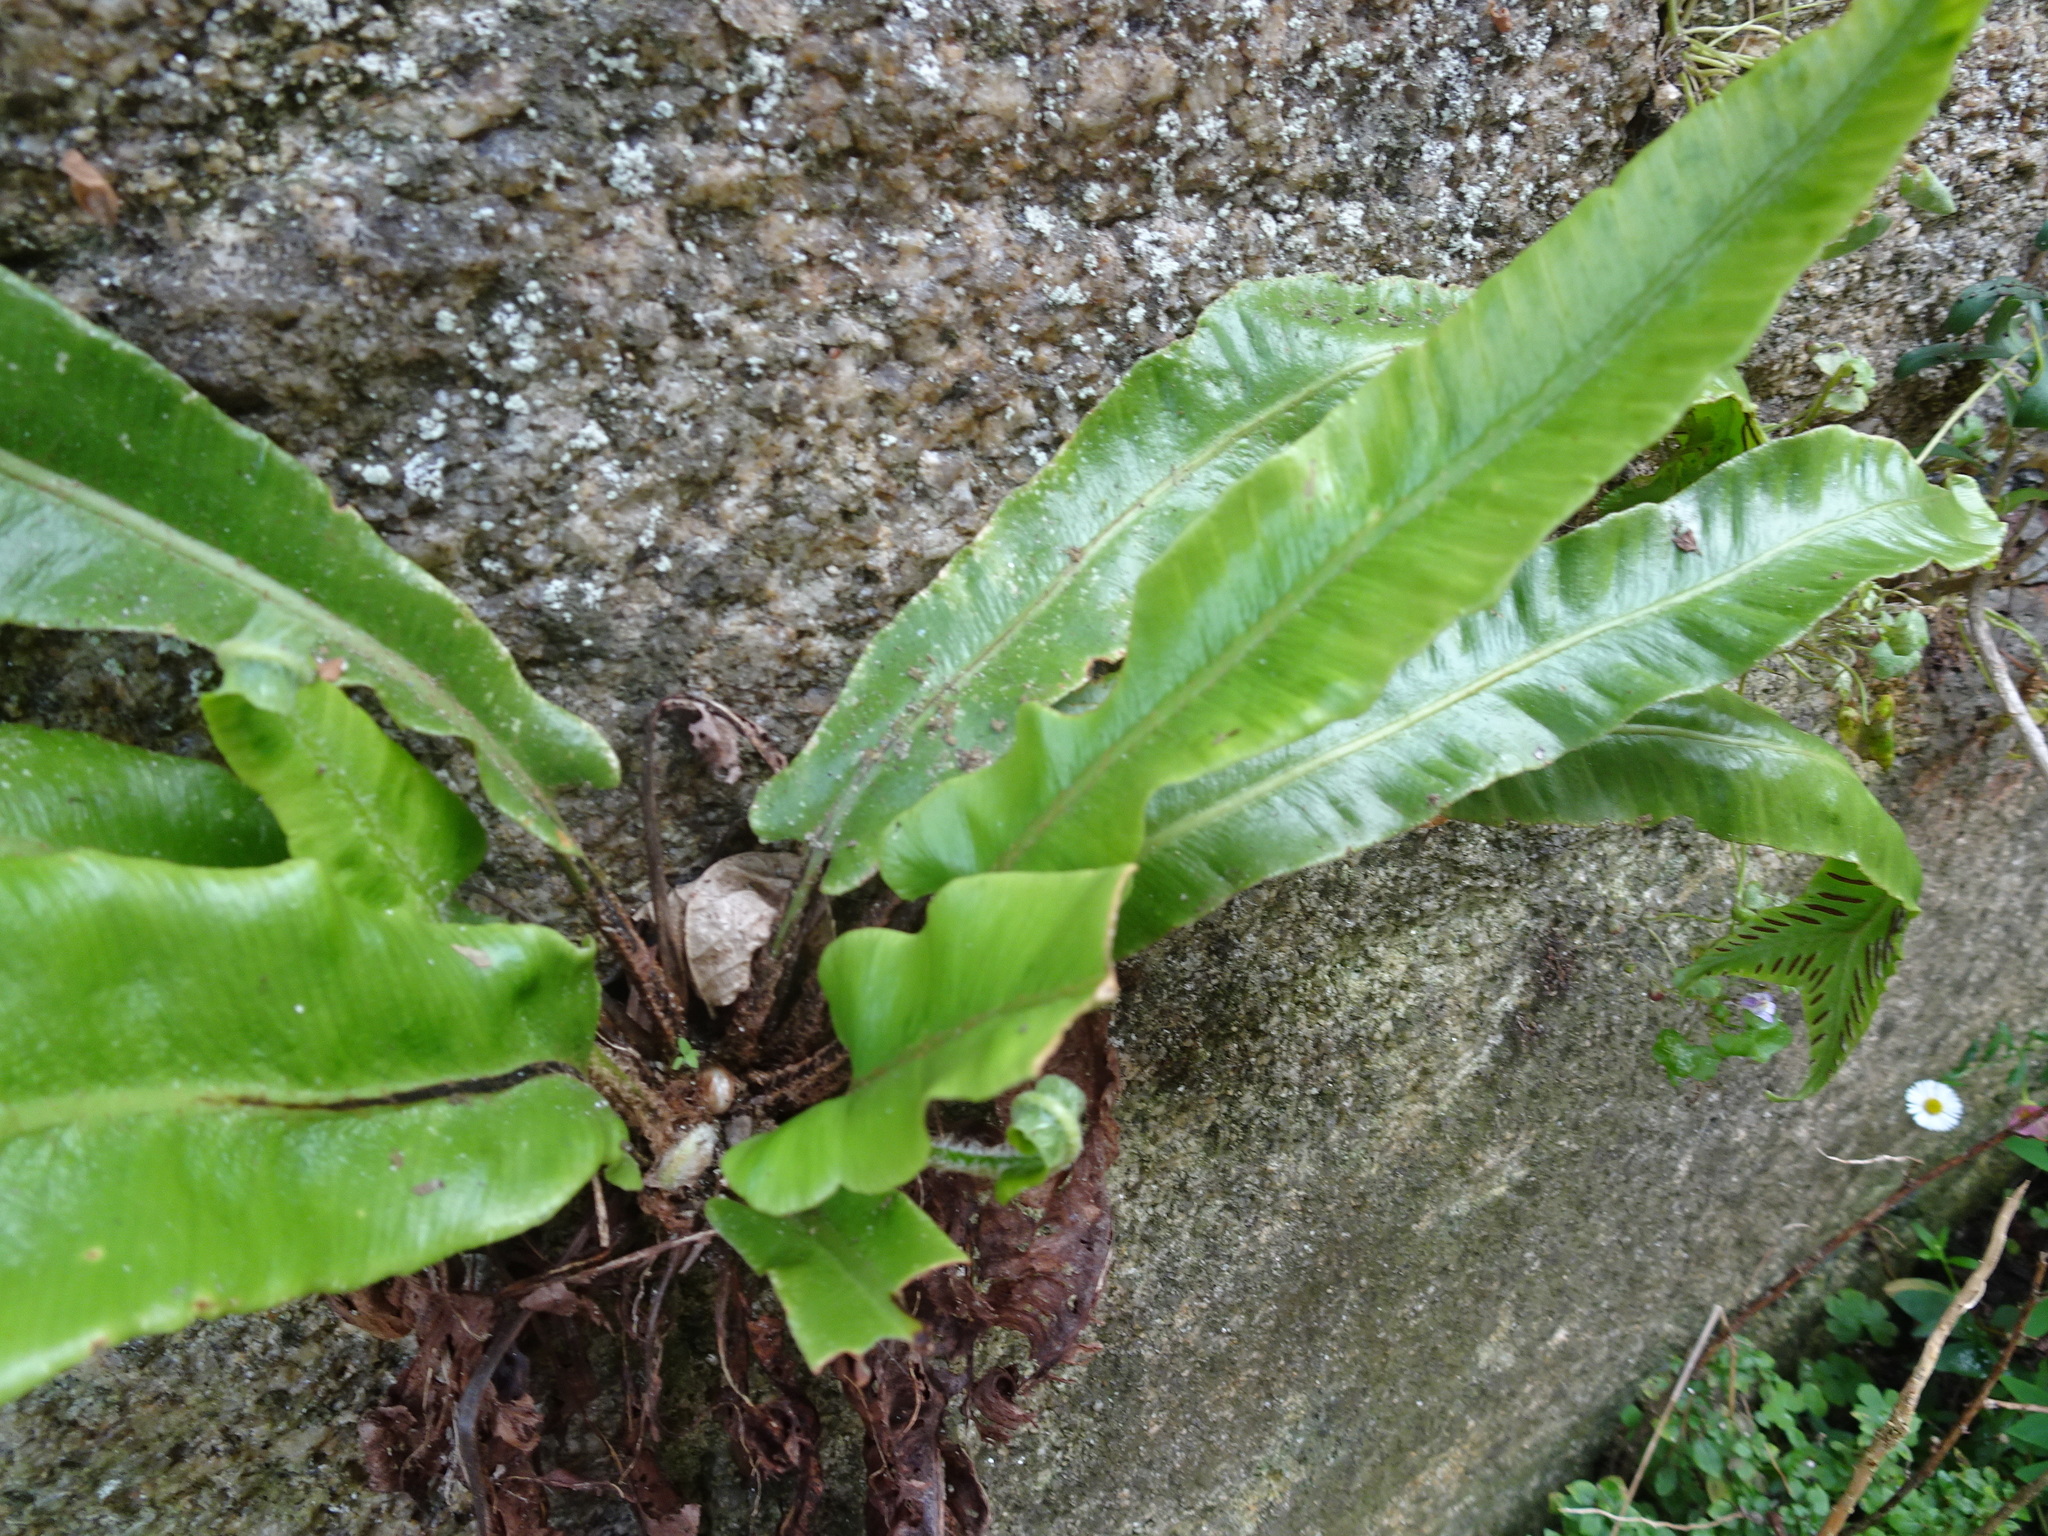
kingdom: Plantae
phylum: Tracheophyta
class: Polypodiopsida
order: Polypodiales
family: Aspleniaceae
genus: Asplenium
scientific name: Asplenium scolopendrium
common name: Hart's-tongue fern
